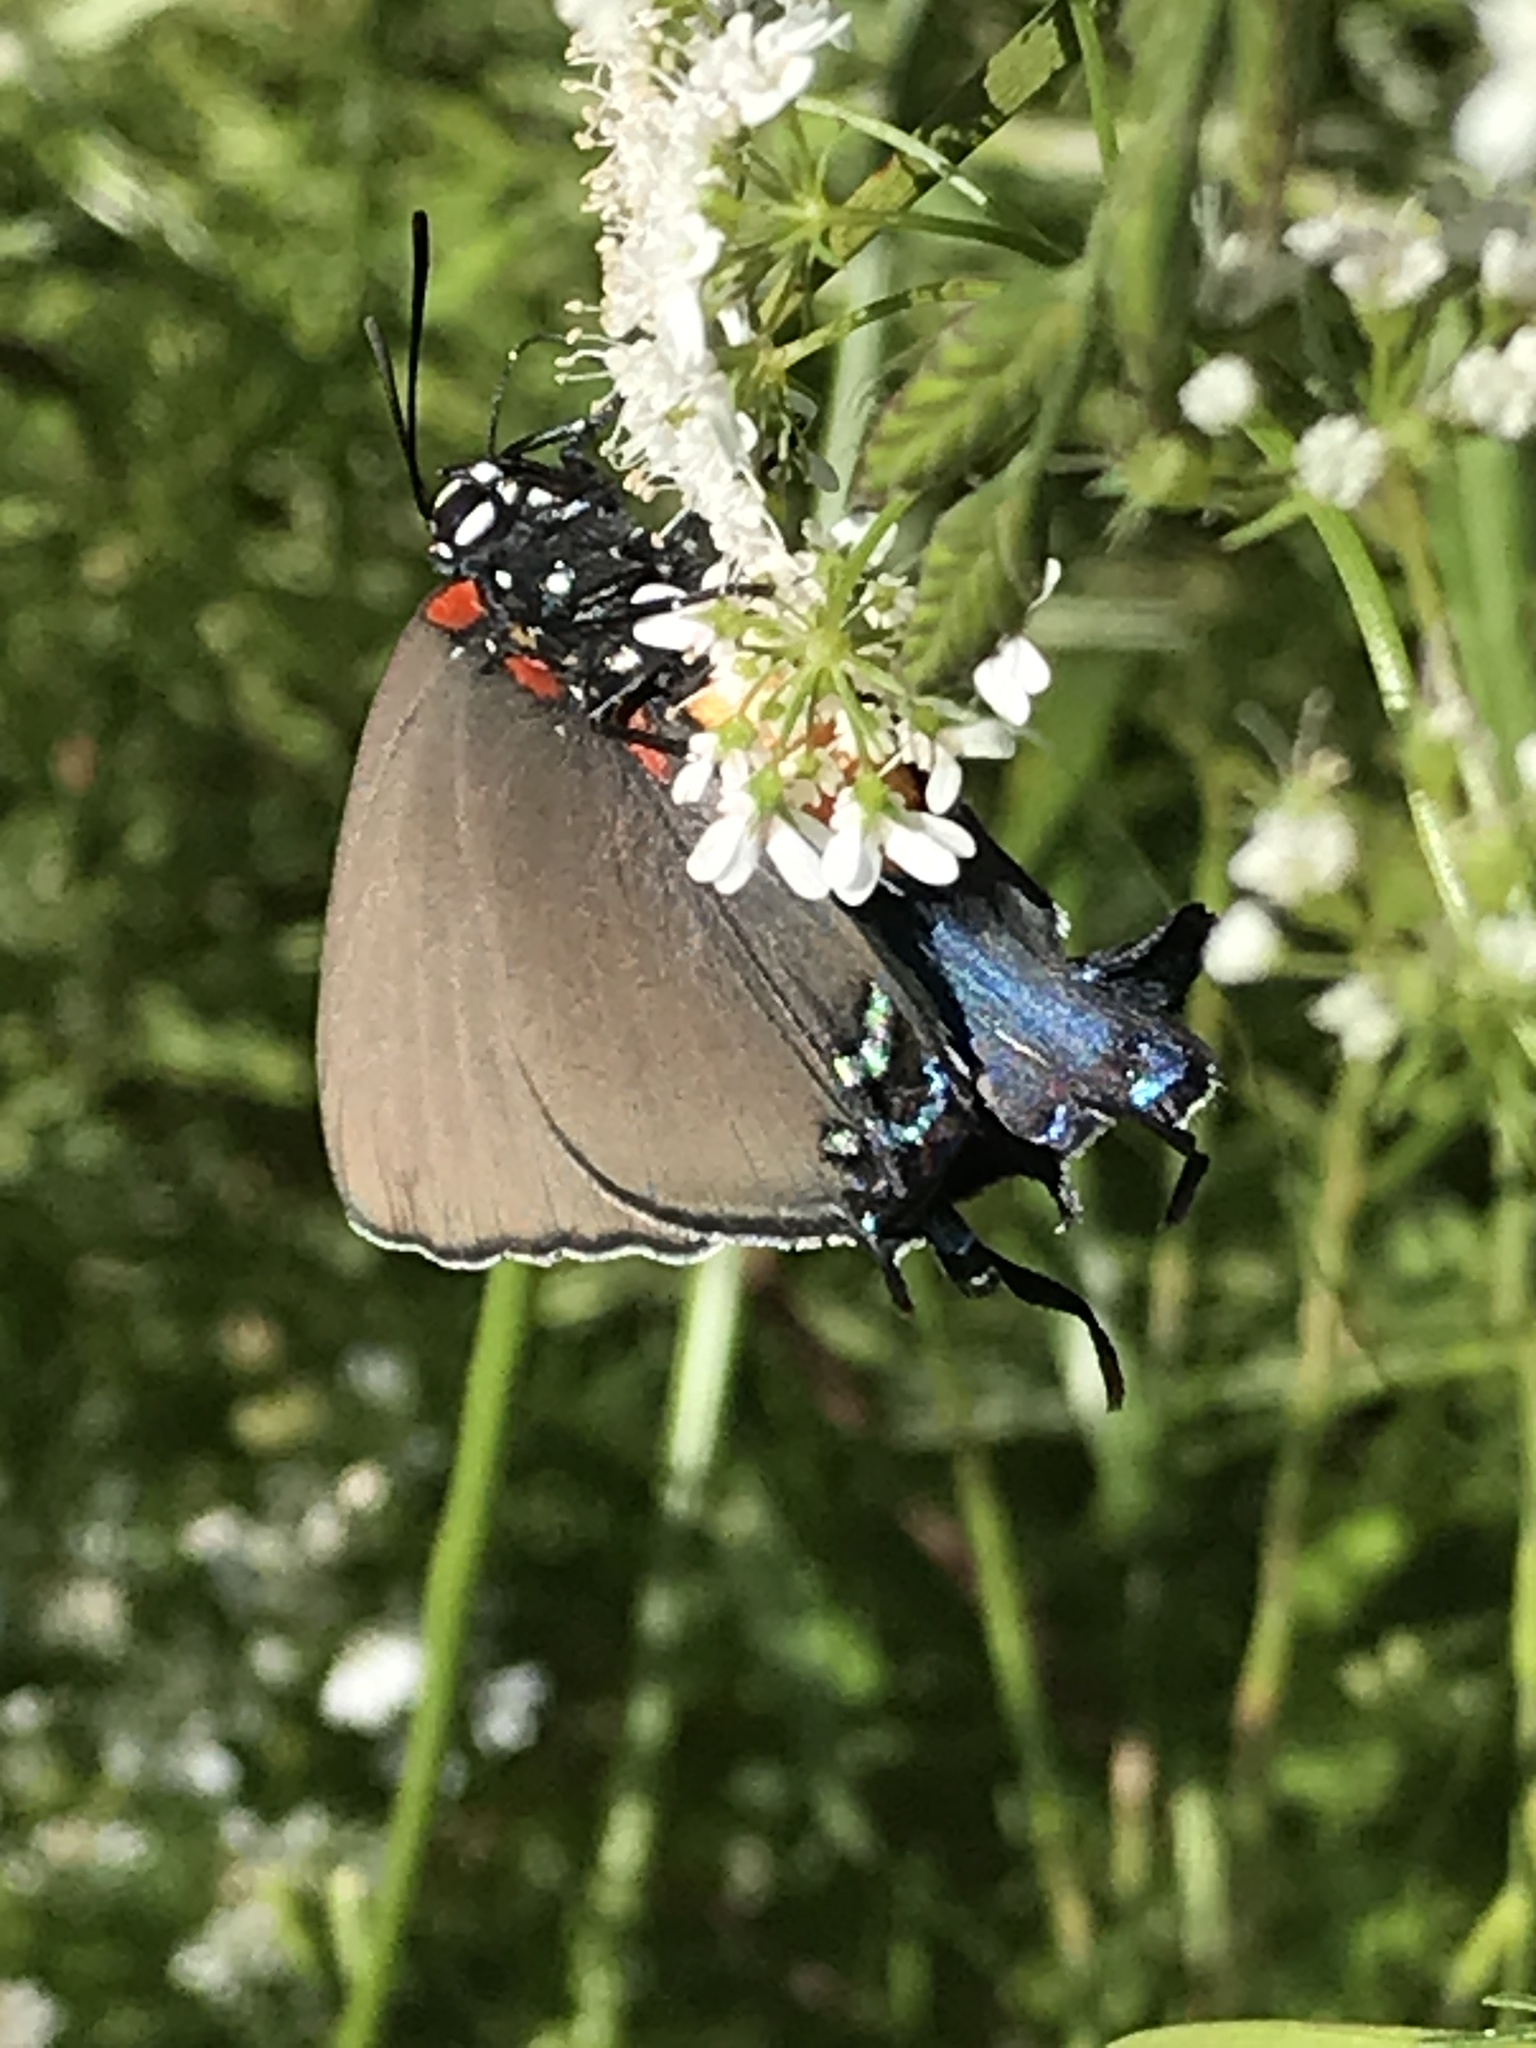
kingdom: Animalia
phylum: Arthropoda
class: Insecta
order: Lepidoptera
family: Lycaenidae
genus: Atlides
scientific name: Atlides halesus
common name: Great purple hairstreak
